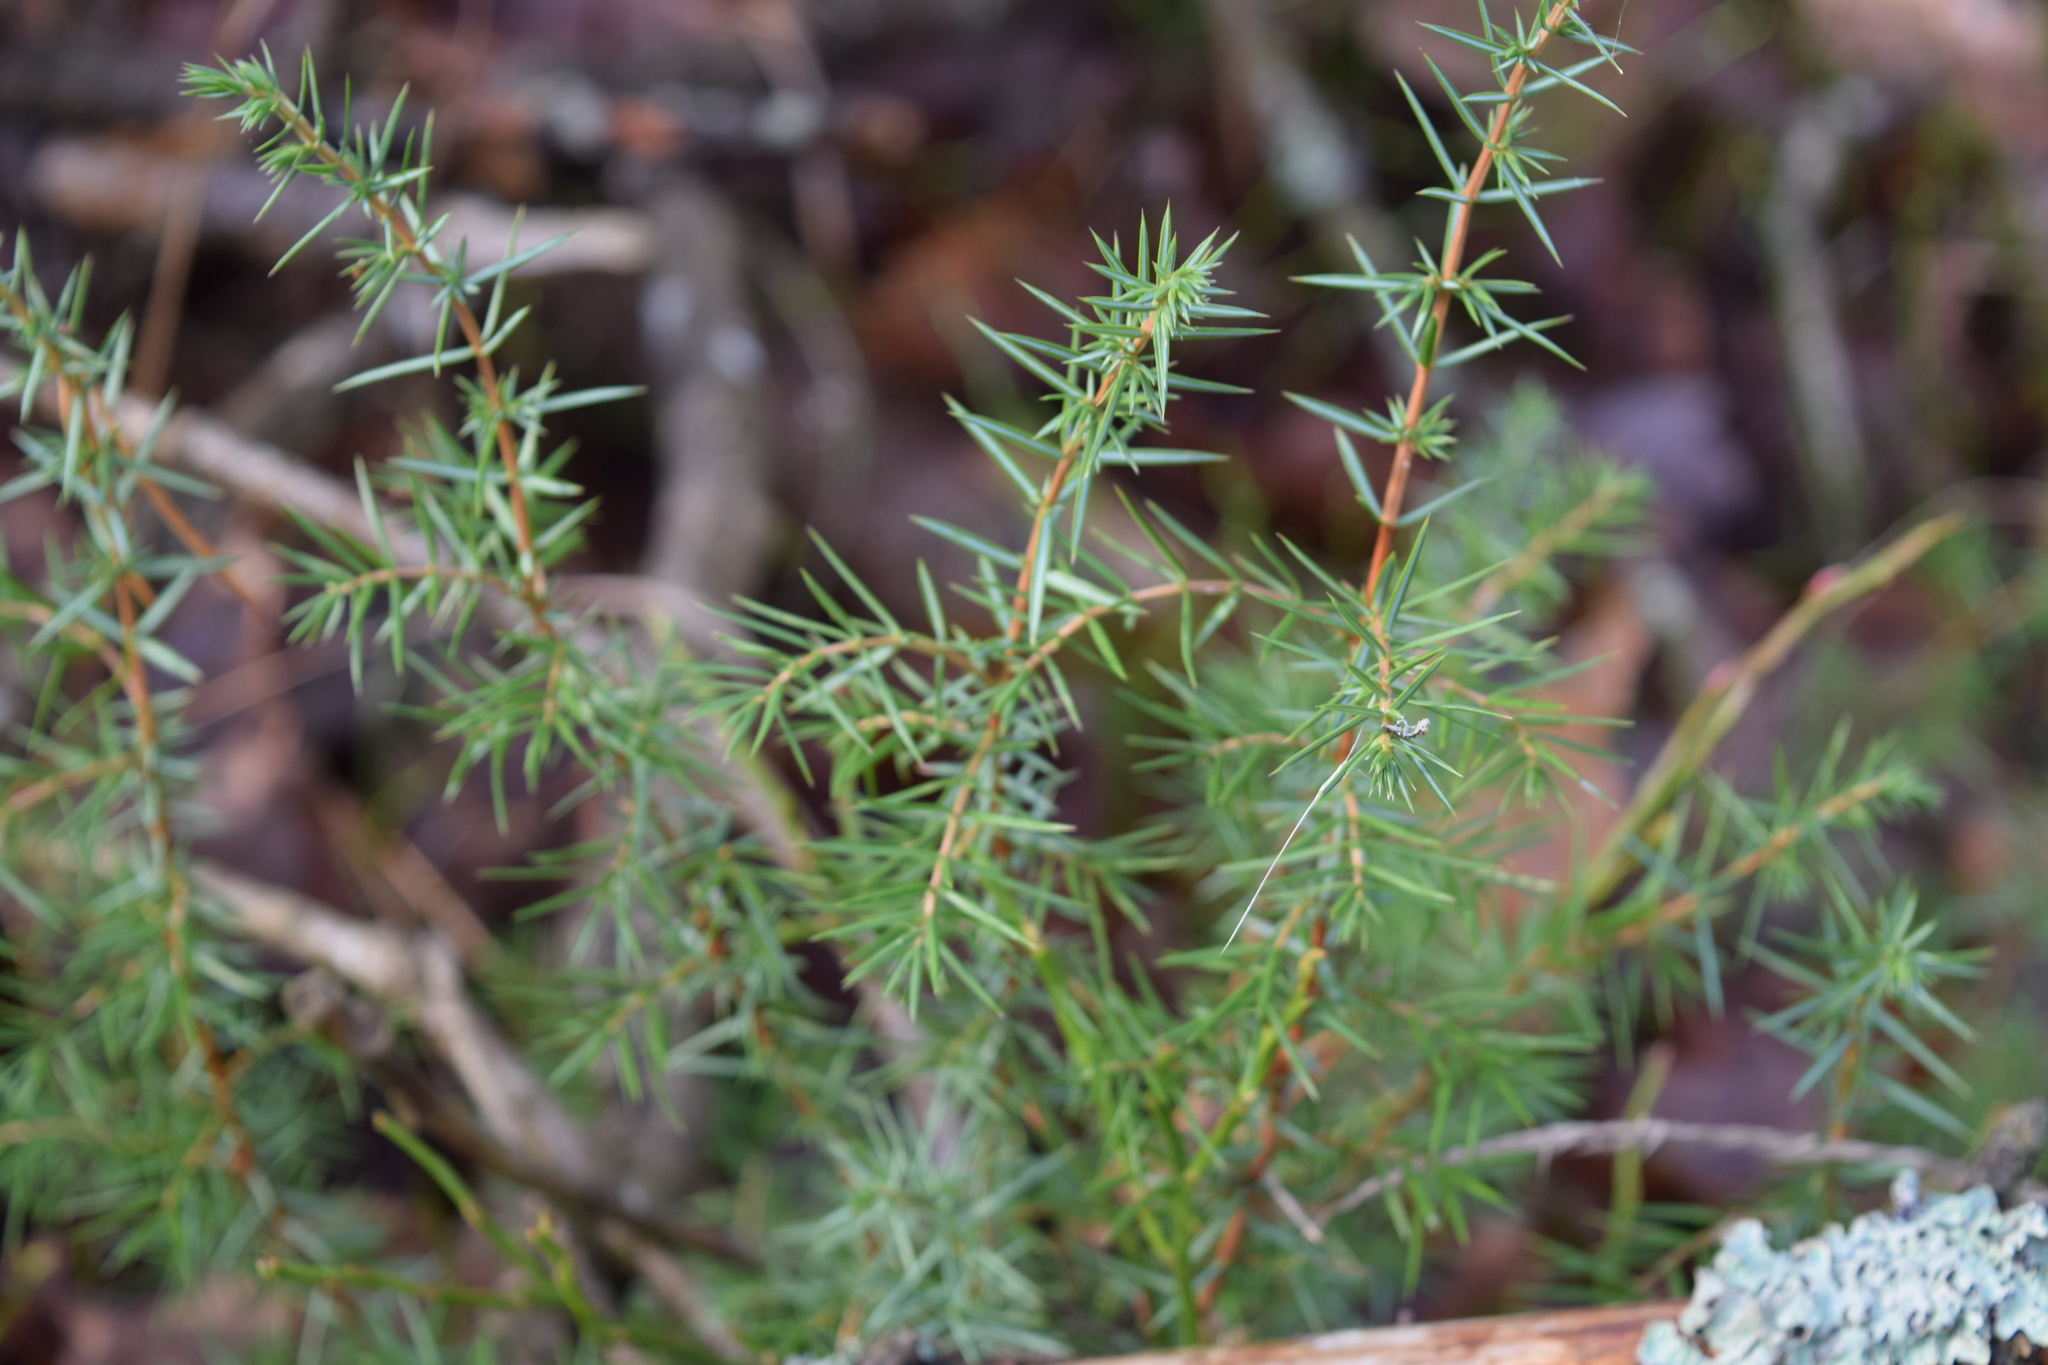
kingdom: Plantae
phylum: Tracheophyta
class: Pinopsida
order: Pinales
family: Cupressaceae
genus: Juniperus
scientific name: Juniperus communis
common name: Common juniper
